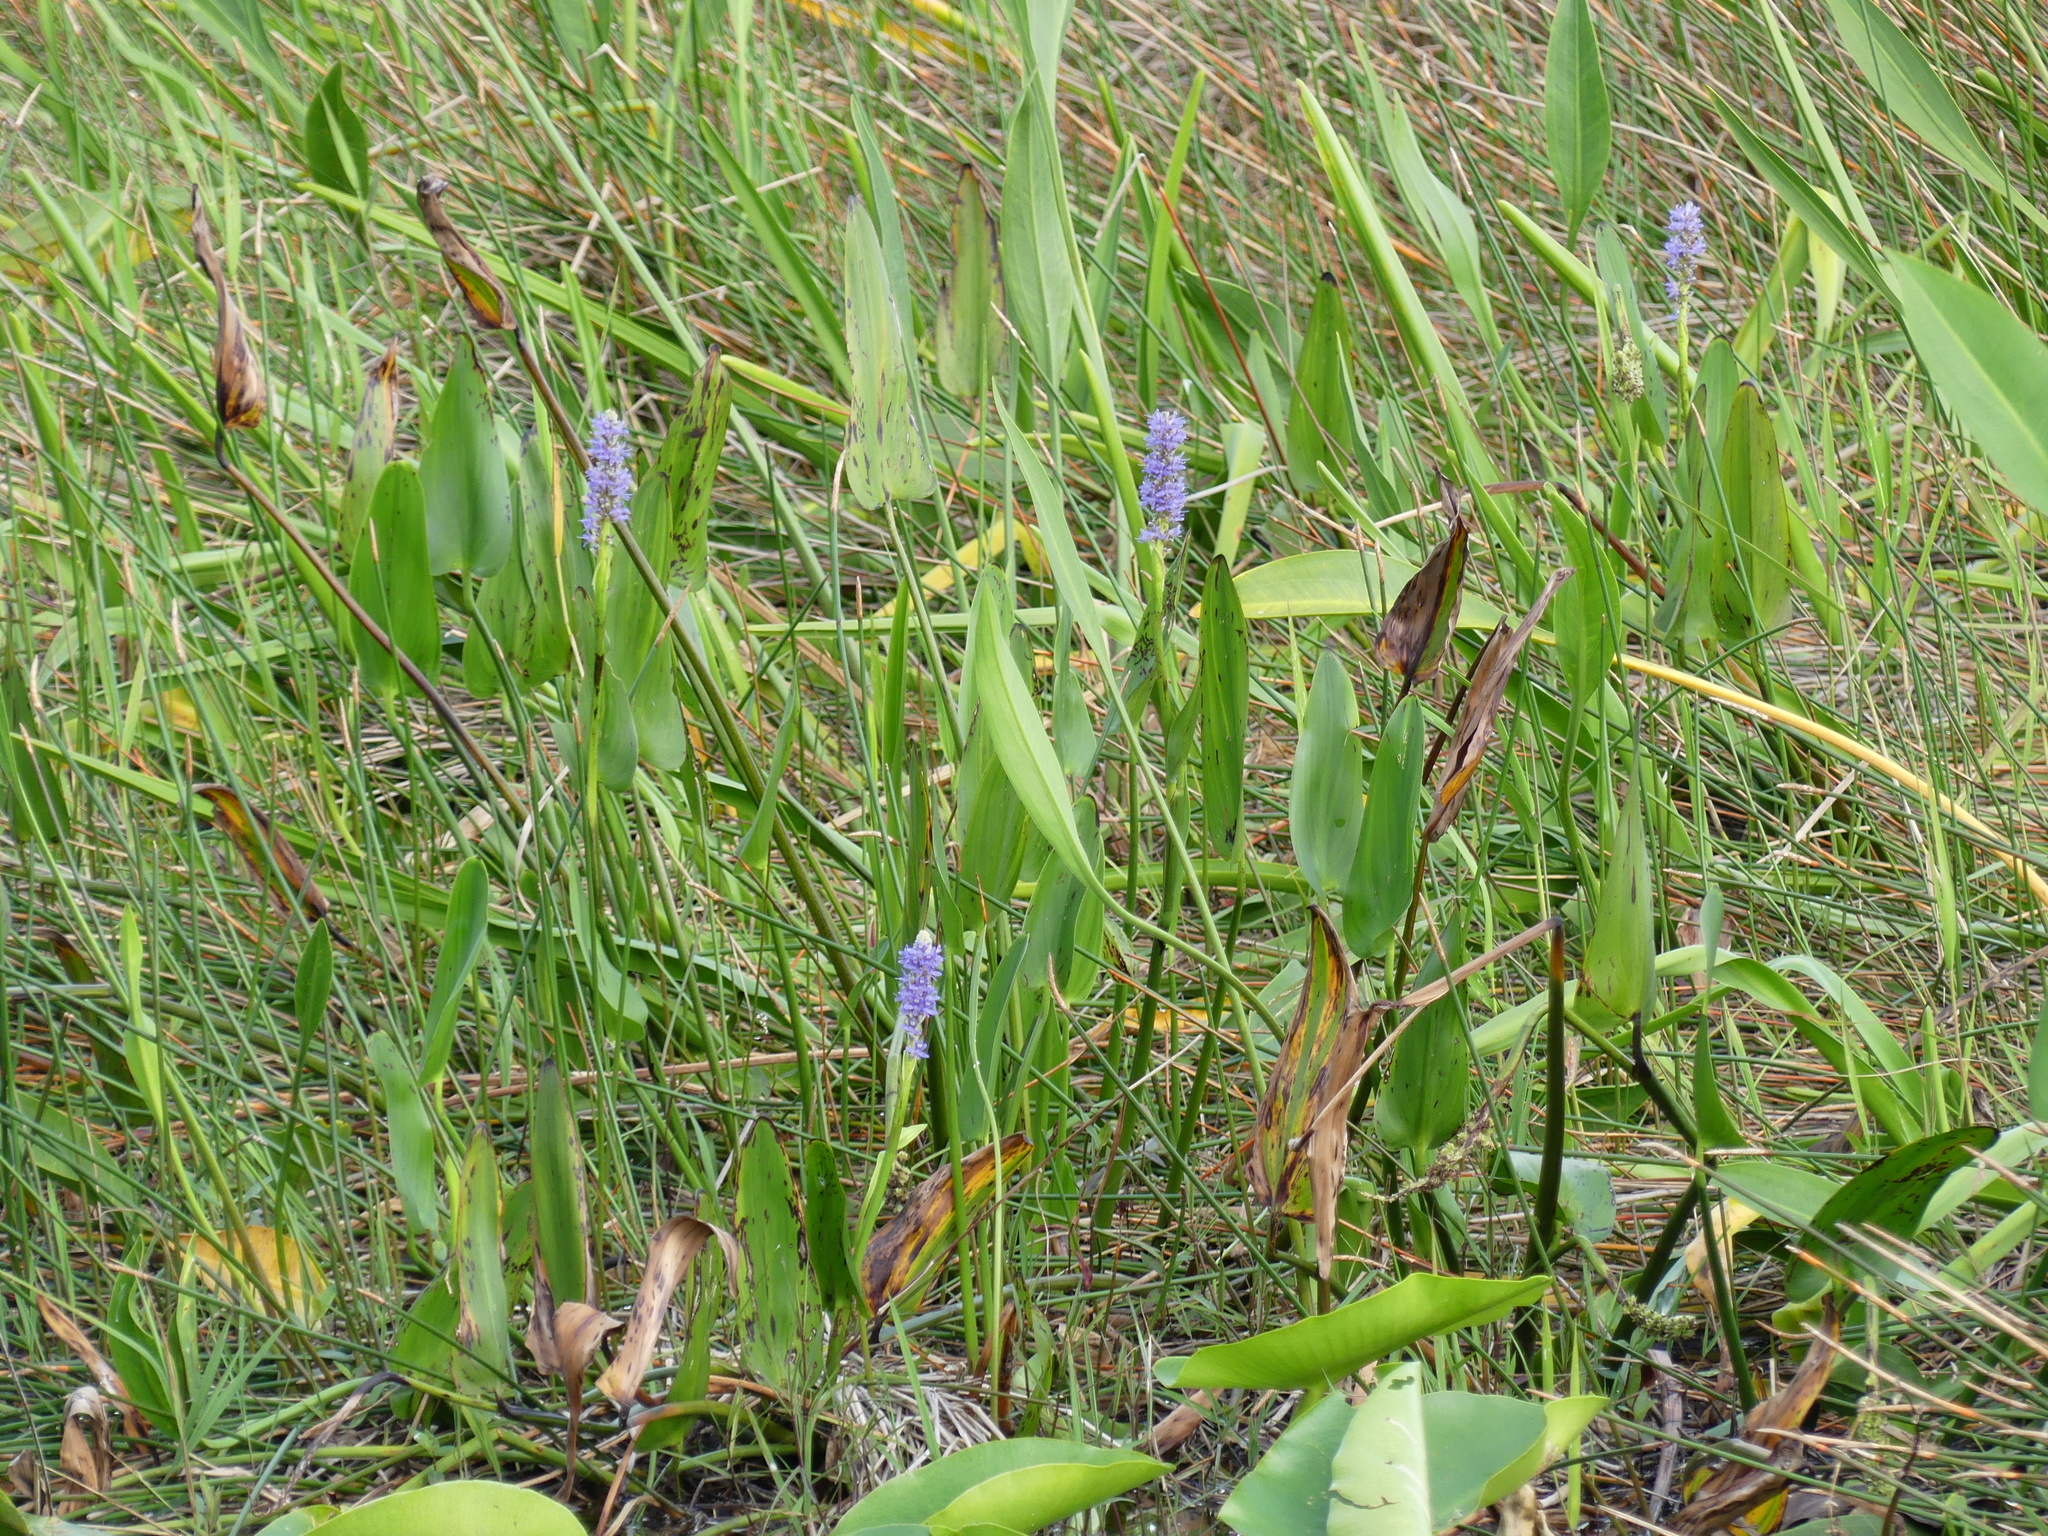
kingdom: Plantae
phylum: Tracheophyta
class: Liliopsida
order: Commelinales
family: Pontederiaceae
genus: Pontederia
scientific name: Pontederia cordata
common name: Pickerelweed
